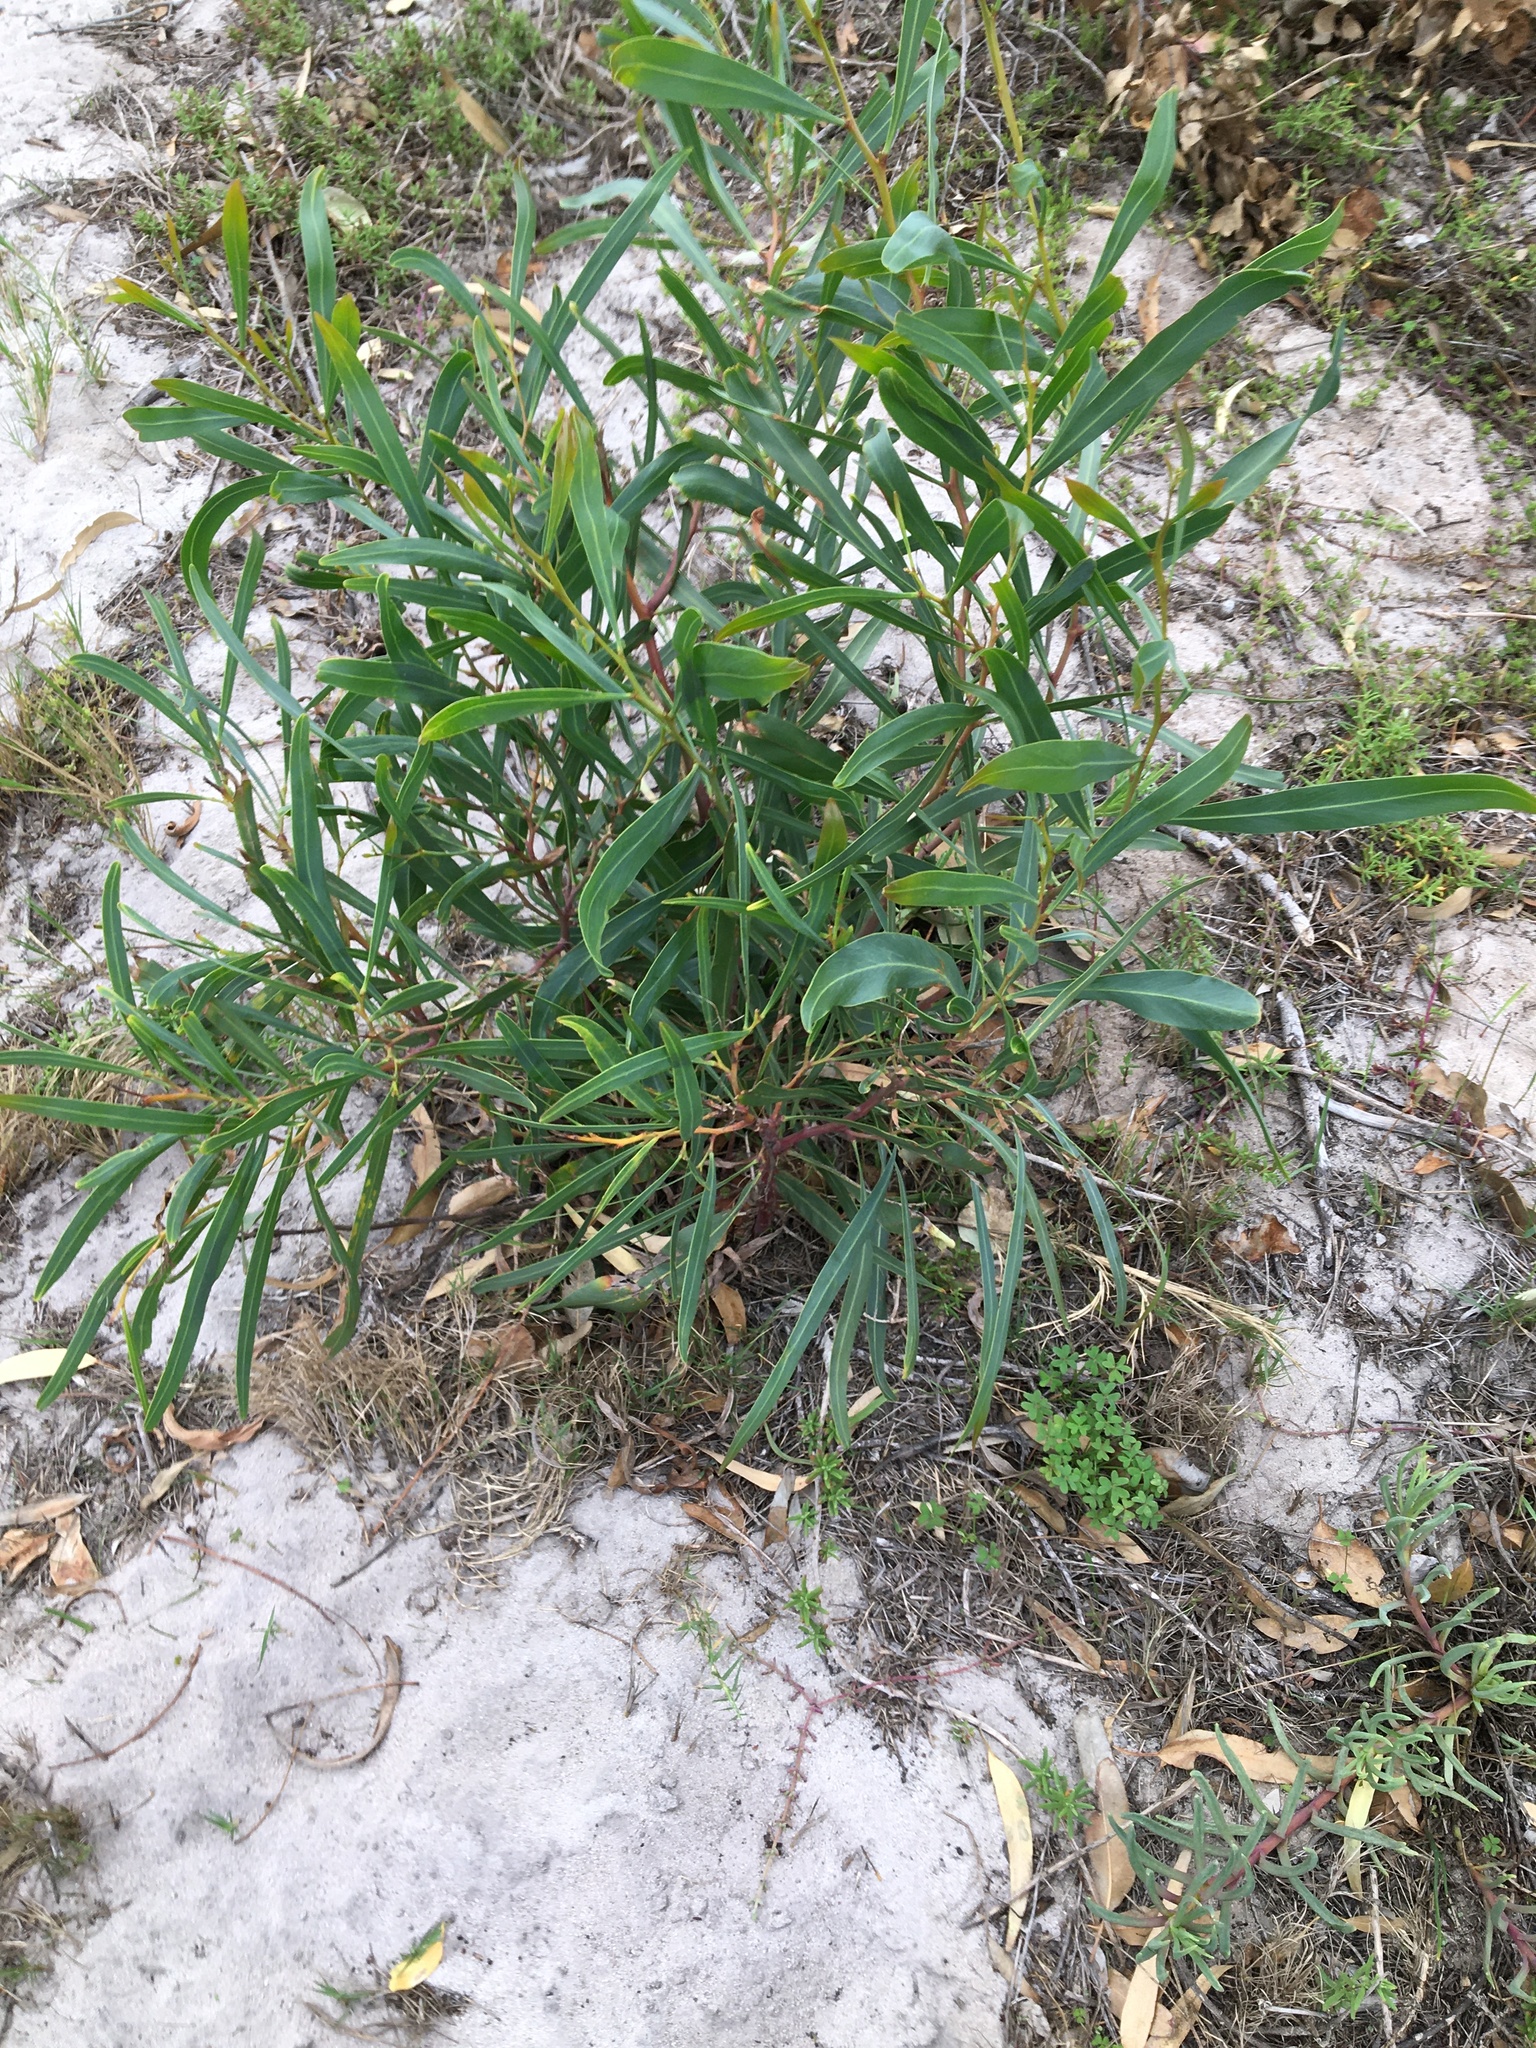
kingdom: Plantae
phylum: Tracheophyta
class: Magnoliopsida
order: Fabales
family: Fabaceae
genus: Acacia
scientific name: Acacia saligna
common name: Orange wattle
